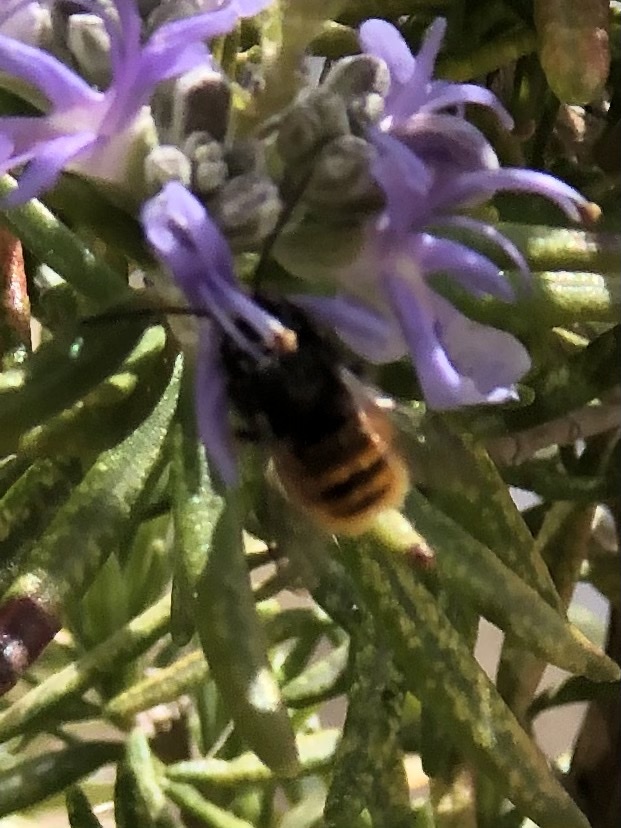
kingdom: Animalia
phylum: Arthropoda
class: Insecta
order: Hymenoptera
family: Megachilidae
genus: Osmia
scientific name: Osmia cornuta
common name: Mason bee
